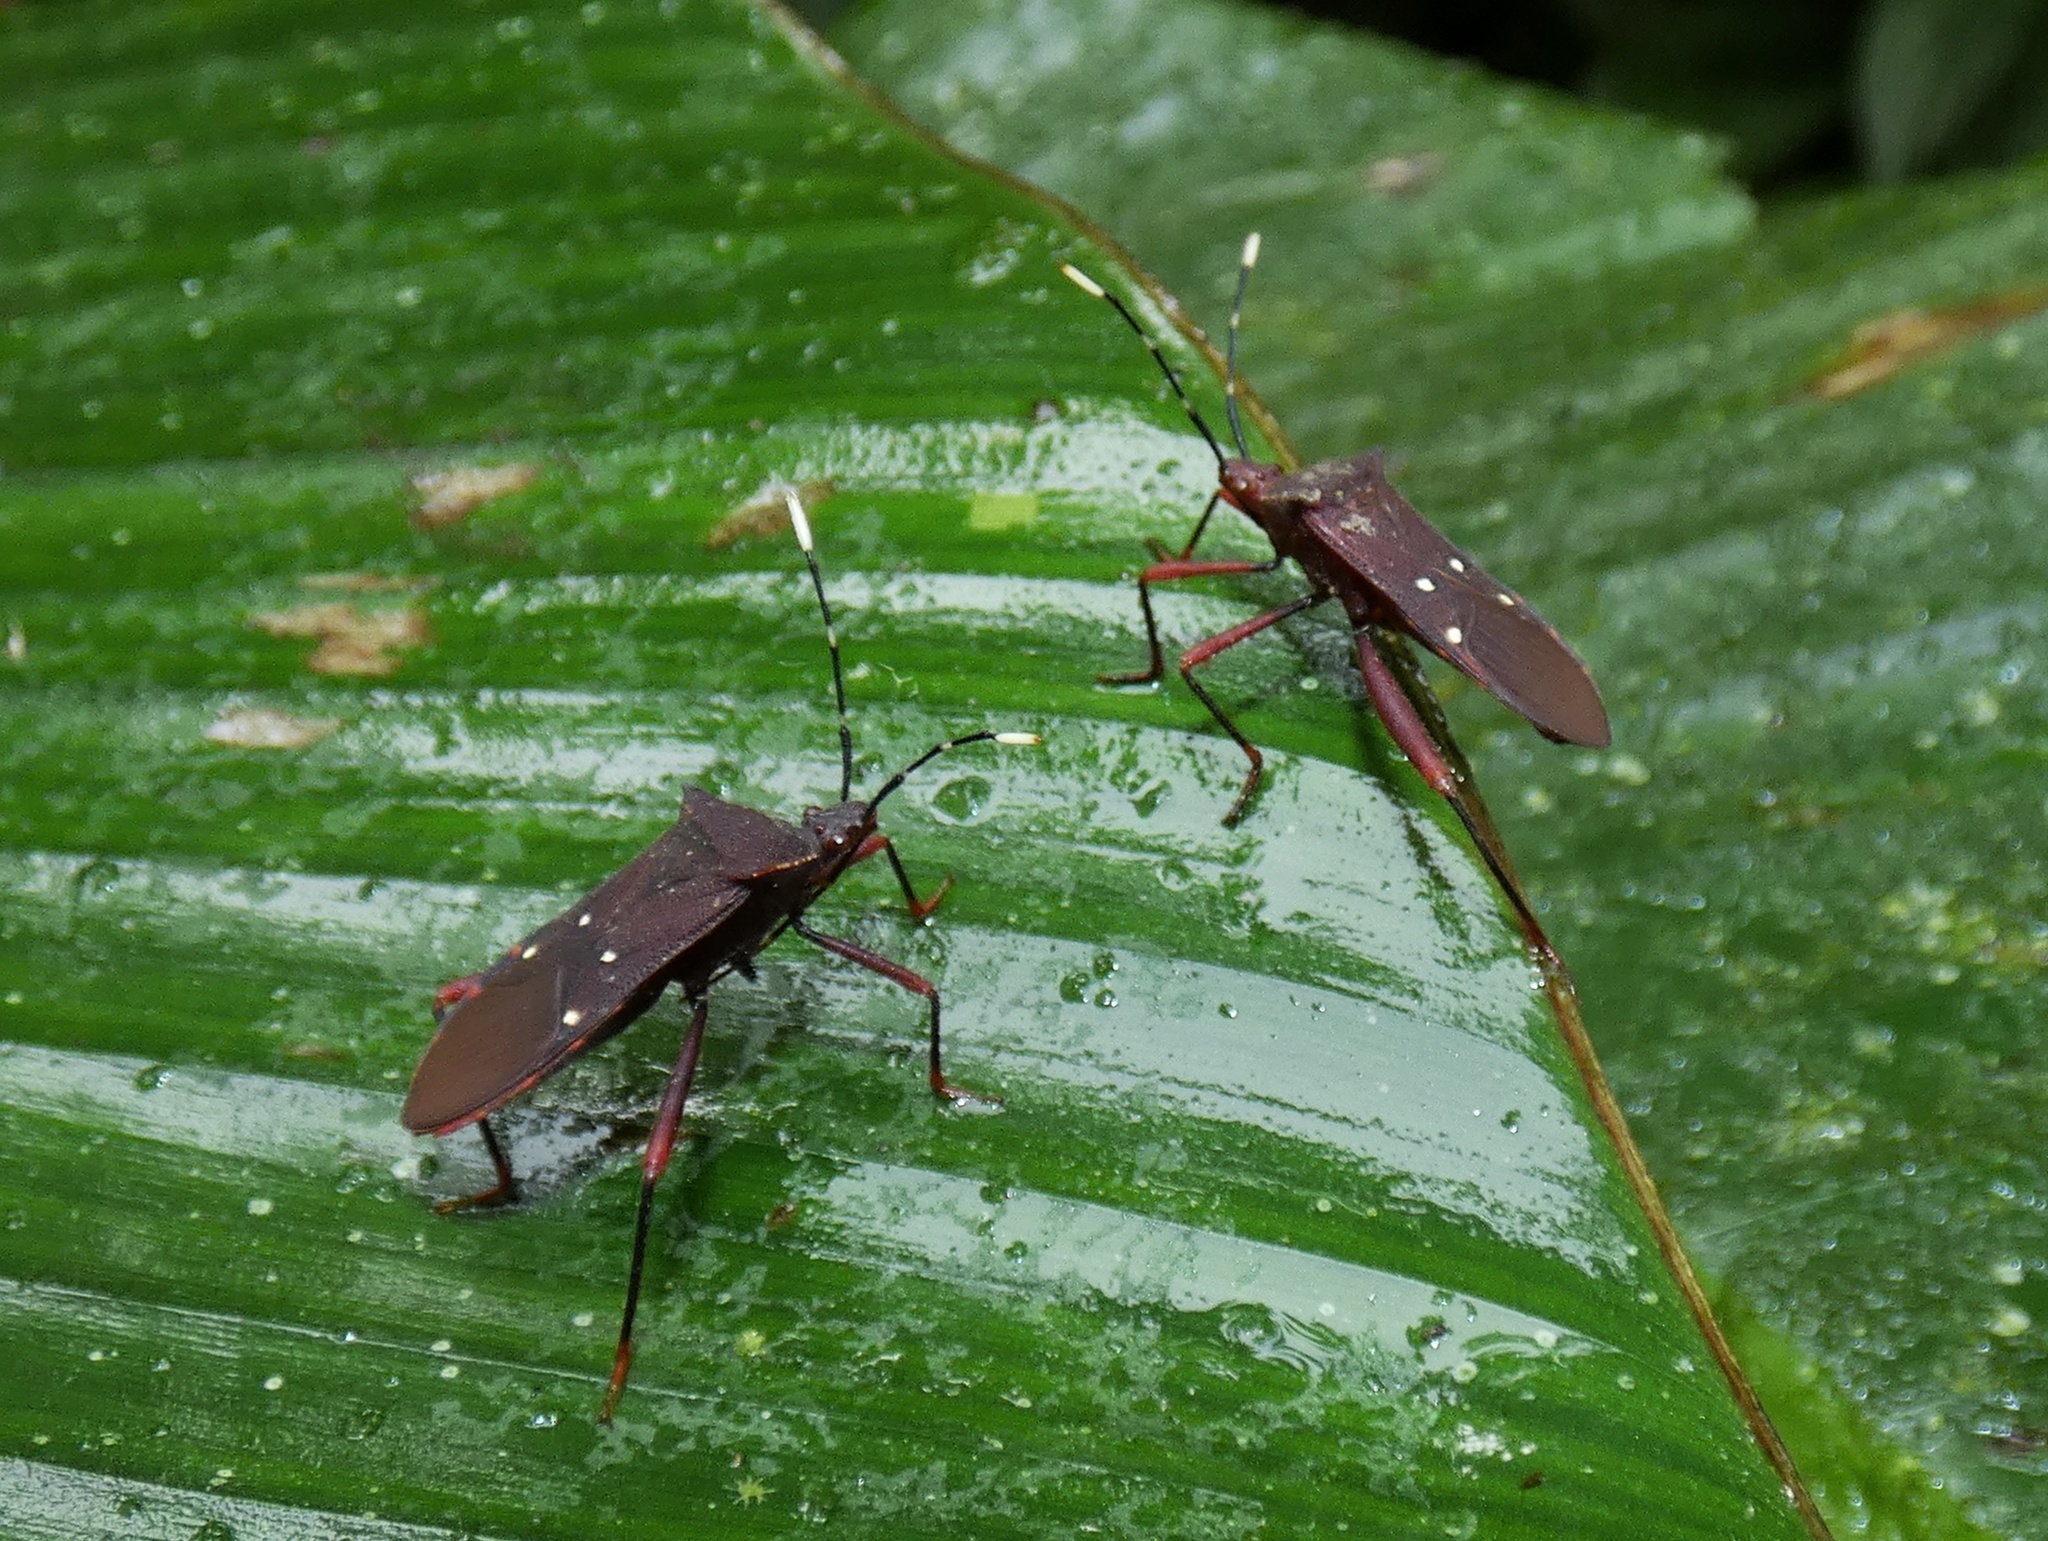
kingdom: Animalia
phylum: Arthropoda
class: Insecta
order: Hemiptera
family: Coreidae
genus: Leptoscelis
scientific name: Leptoscelis quadrisignatus
